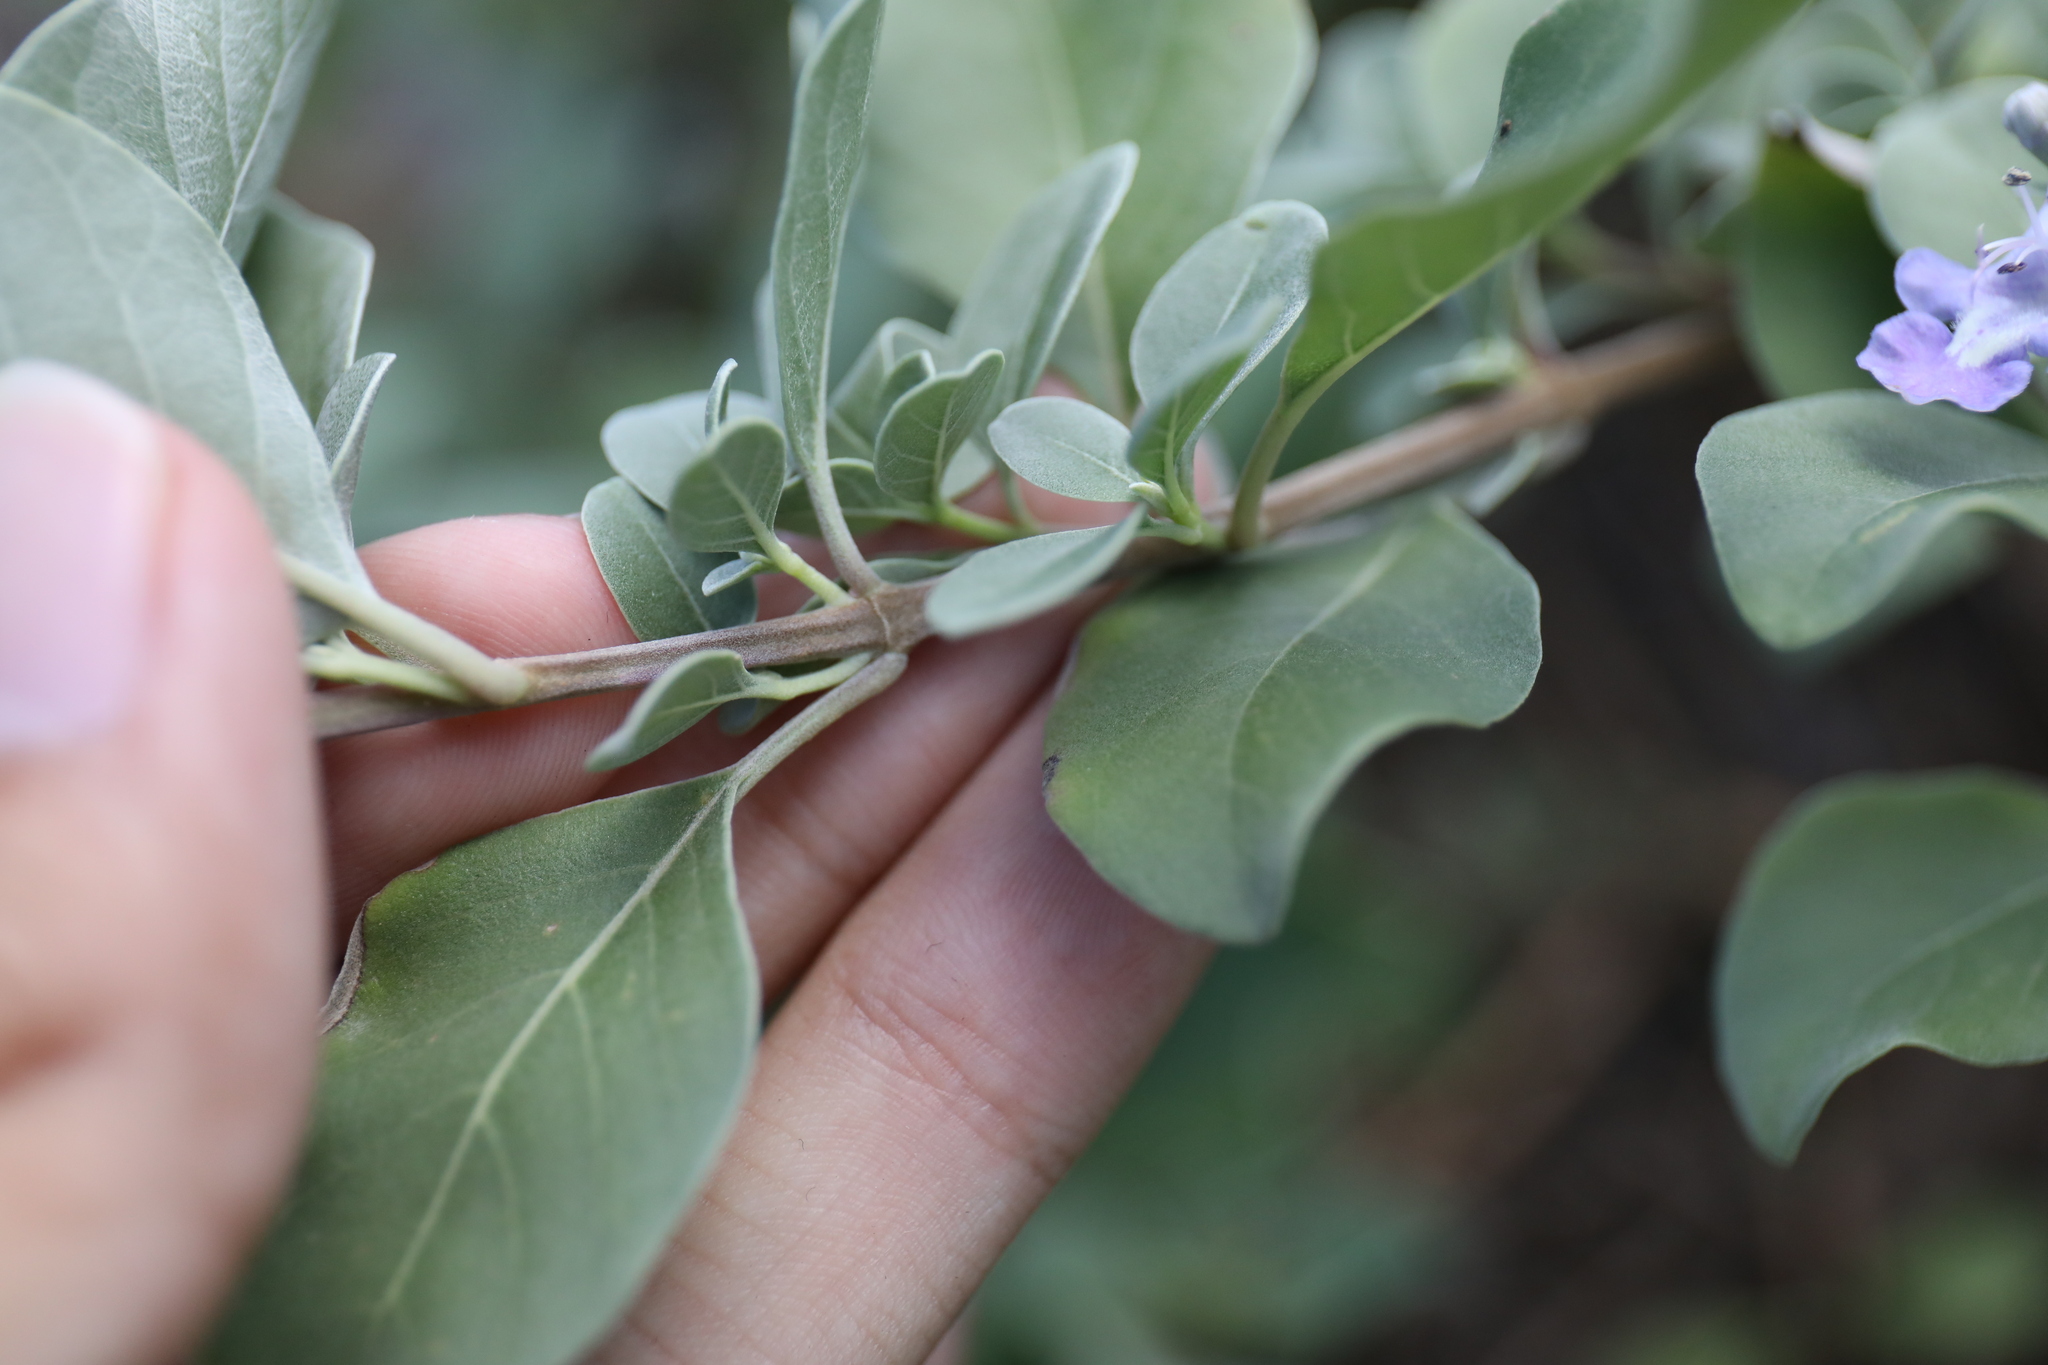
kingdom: Plantae
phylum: Tracheophyta
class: Magnoliopsida
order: Lamiales
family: Lamiaceae
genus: Vitex
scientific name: Vitex rotundifolia
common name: Beach vitex
